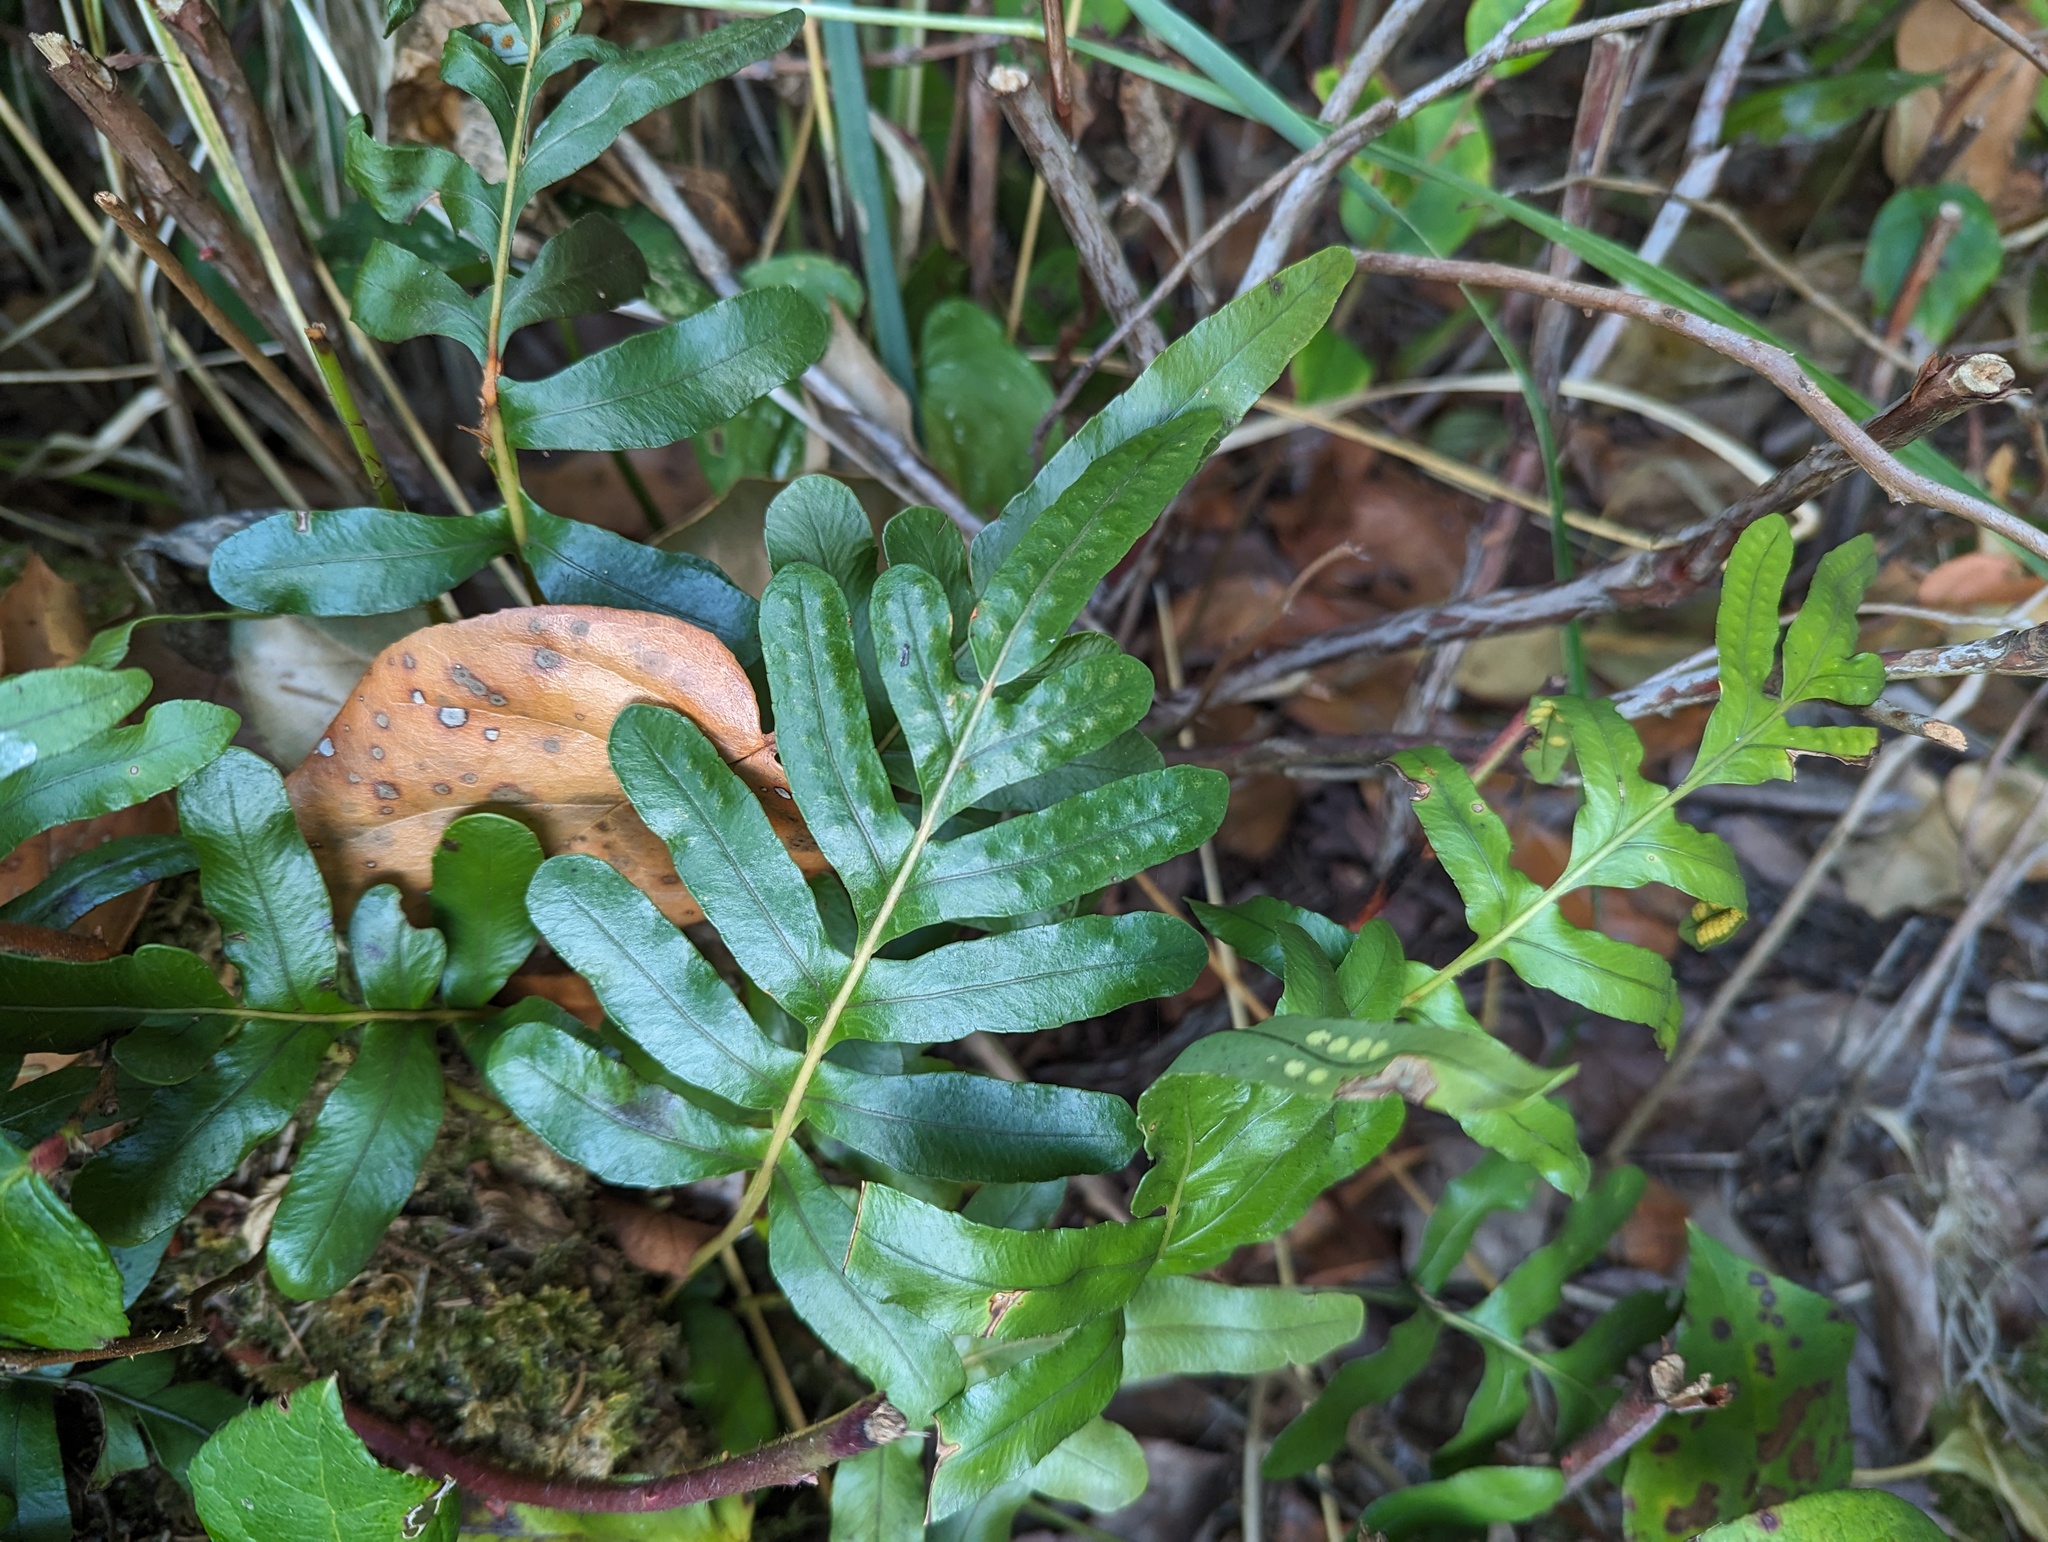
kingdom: Plantae
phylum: Tracheophyta
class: Polypodiopsida
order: Polypodiales
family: Polypodiaceae
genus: Polypodium
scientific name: Polypodium scouleri
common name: Scouler's polypody
